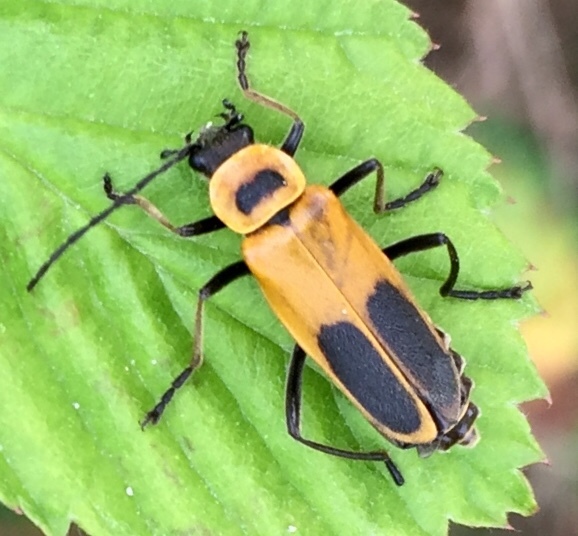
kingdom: Animalia
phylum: Arthropoda
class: Insecta
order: Coleoptera
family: Cantharidae
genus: Chauliognathus
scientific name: Chauliognathus pensylvanicus
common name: Goldenrod soldier beetle
